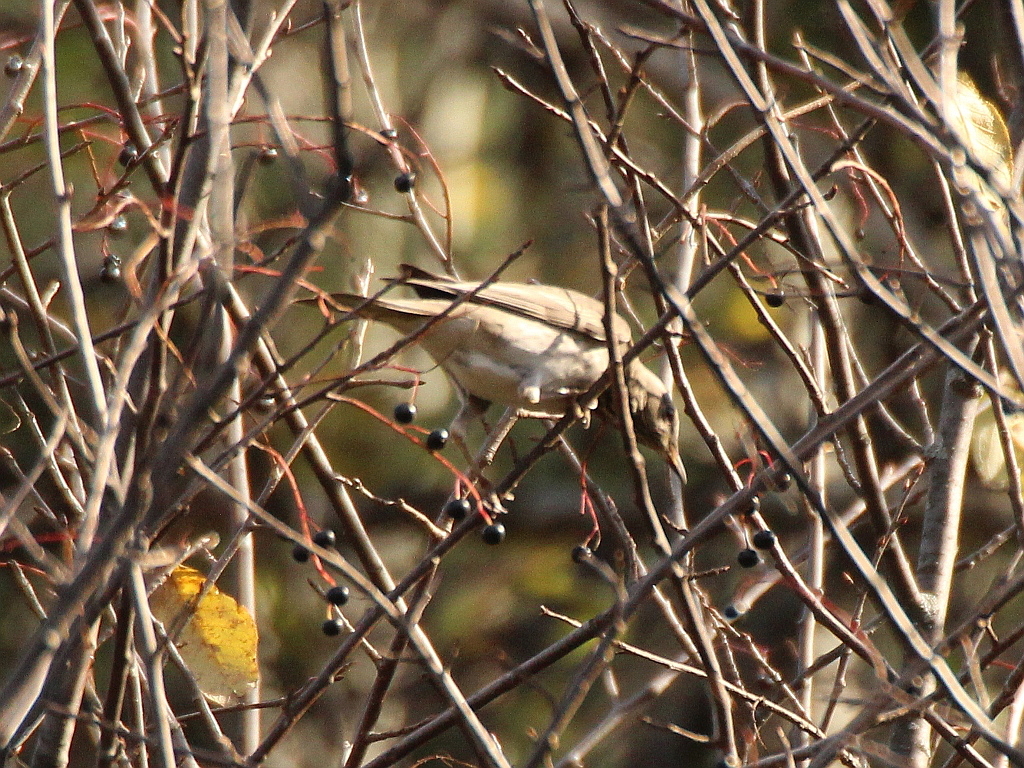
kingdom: Animalia
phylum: Chordata
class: Aves
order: Passeriformes
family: Turdidae
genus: Turdus
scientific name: Turdus atrogularis
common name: Black-throated thrush
